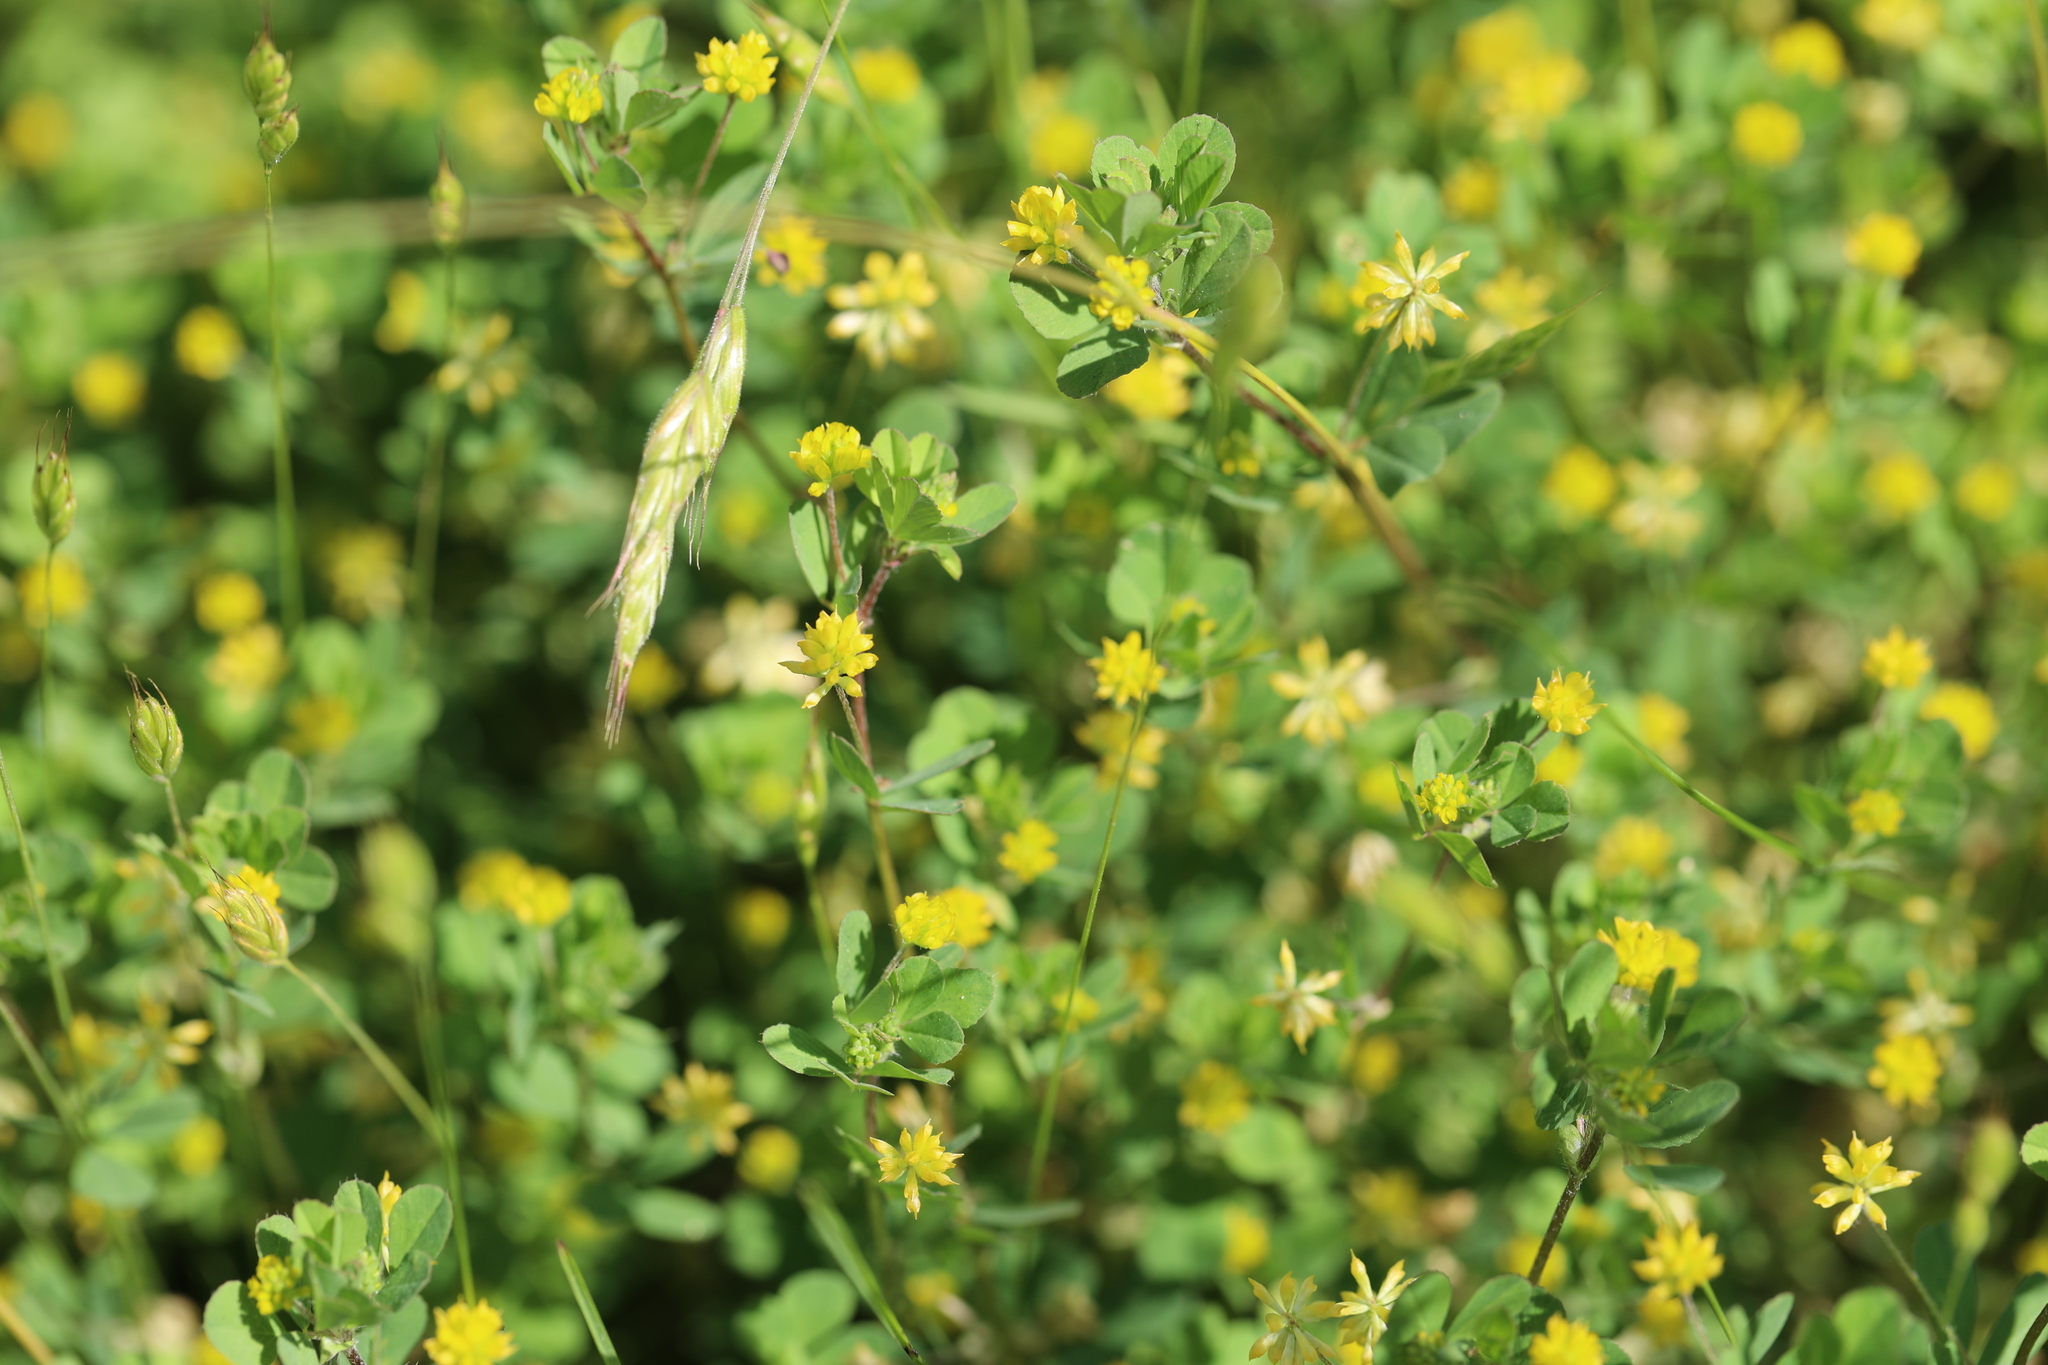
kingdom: Plantae
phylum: Tracheophyta
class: Magnoliopsida
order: Fabales
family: Fabaceae
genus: Trifolium
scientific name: Trifolium dubium
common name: Suckling clover
